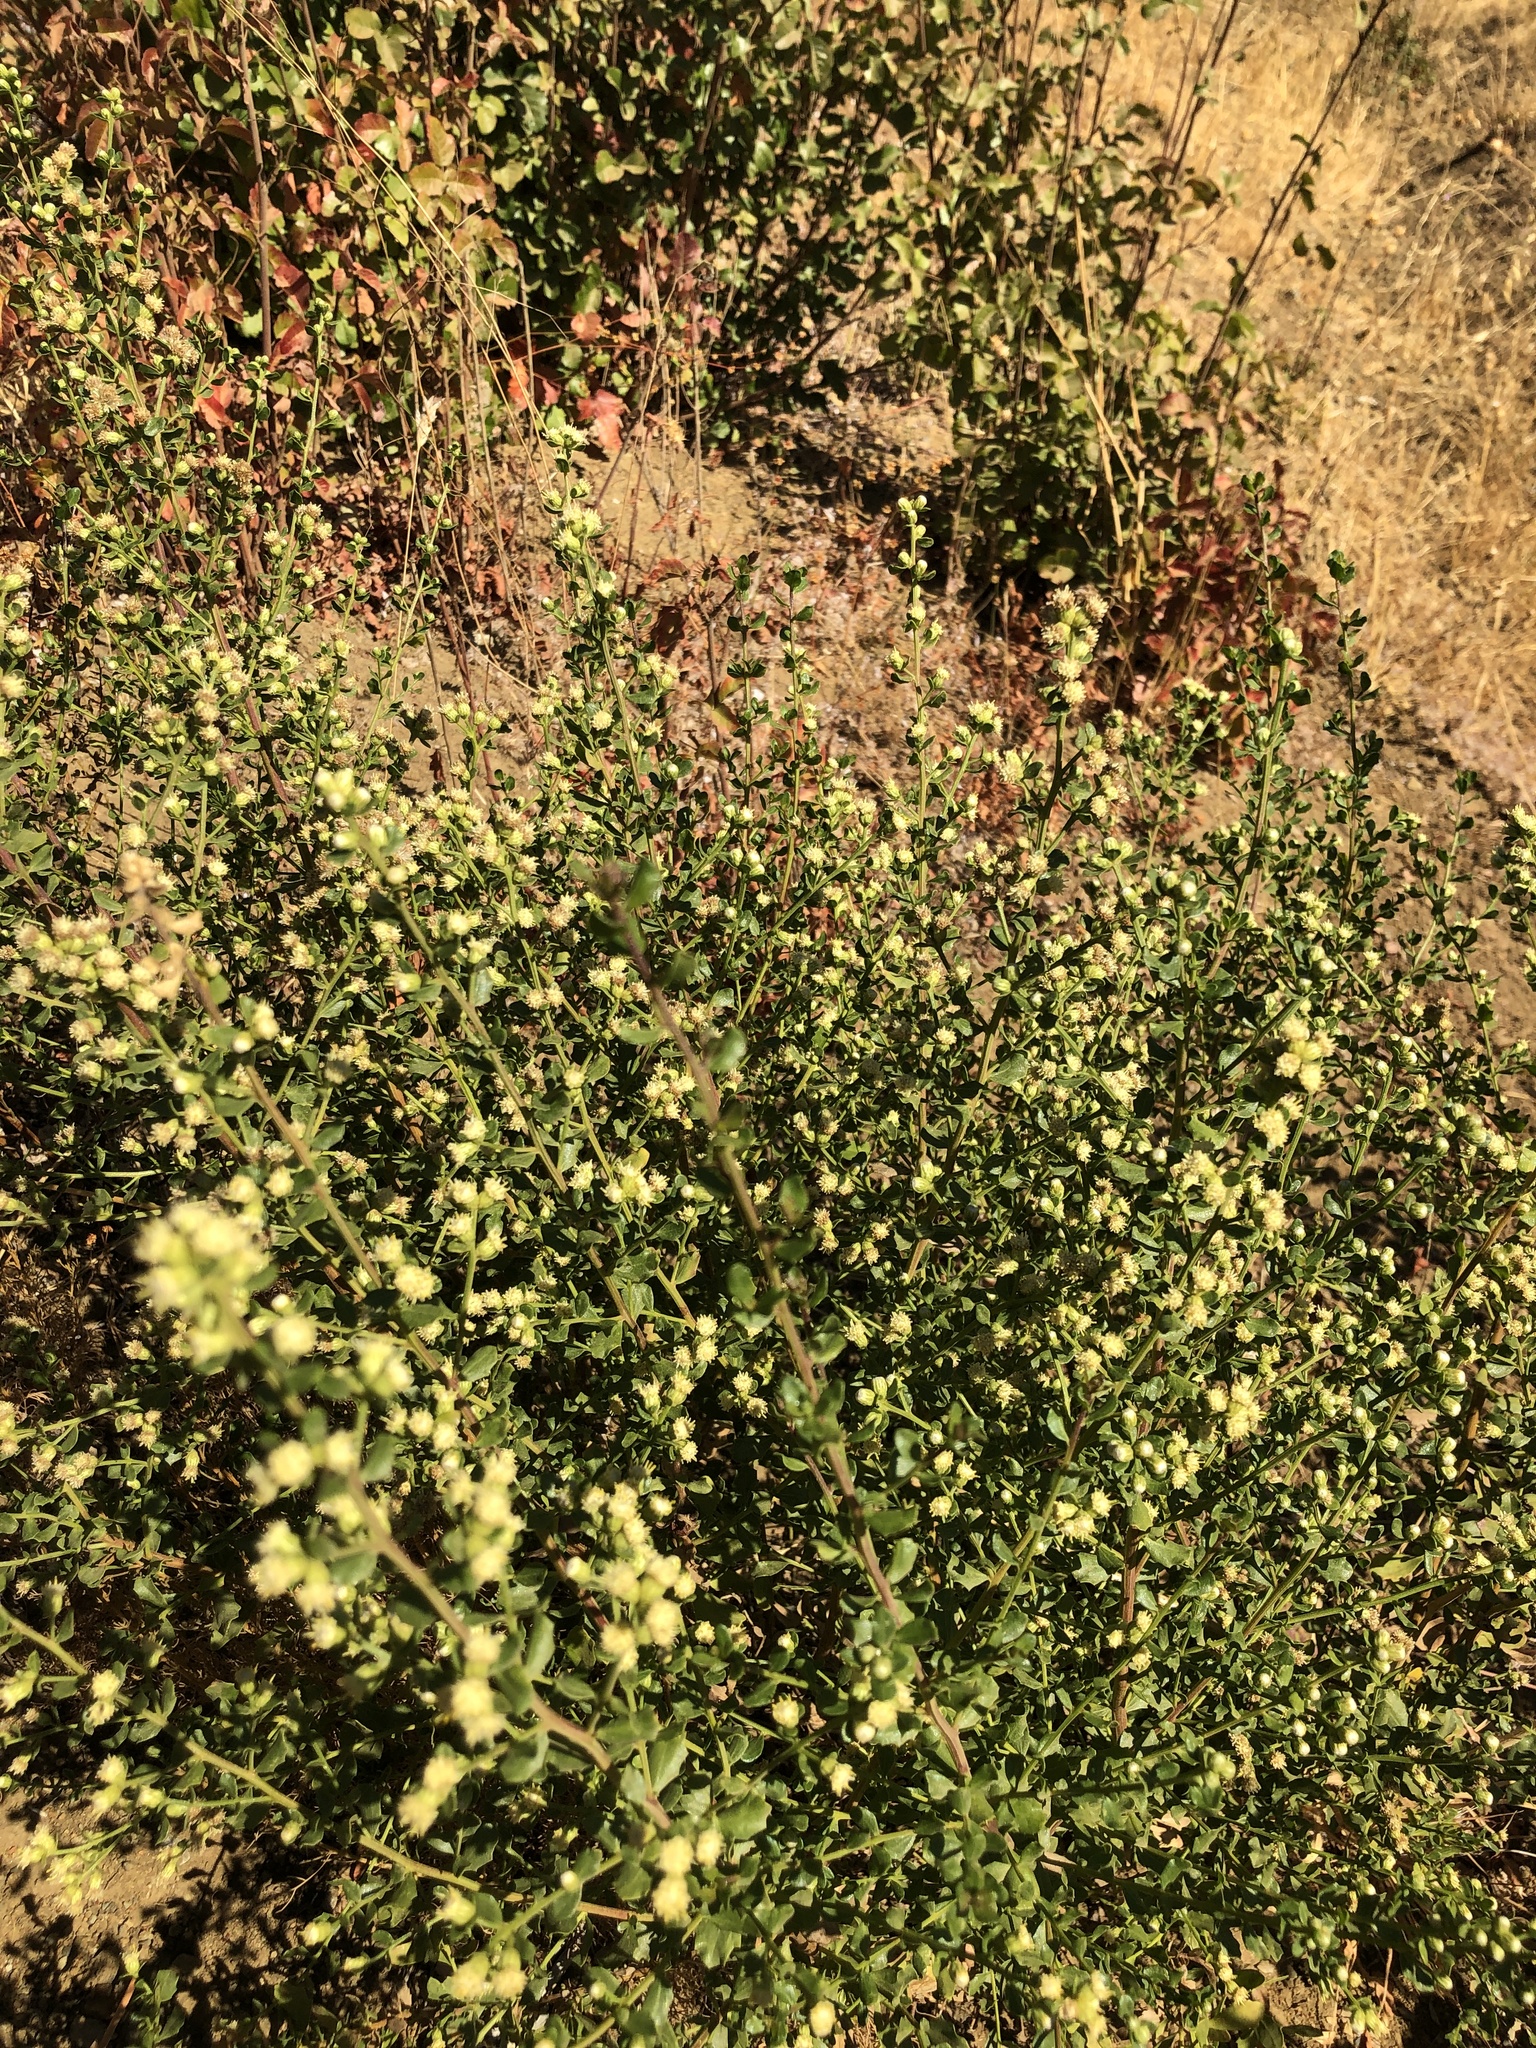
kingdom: Plantae
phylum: Tracheophyta
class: Magnoliopsida
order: Asterales
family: Asteraceae
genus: Baccharis
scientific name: Baccharis pilularis
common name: Coyotebrush
